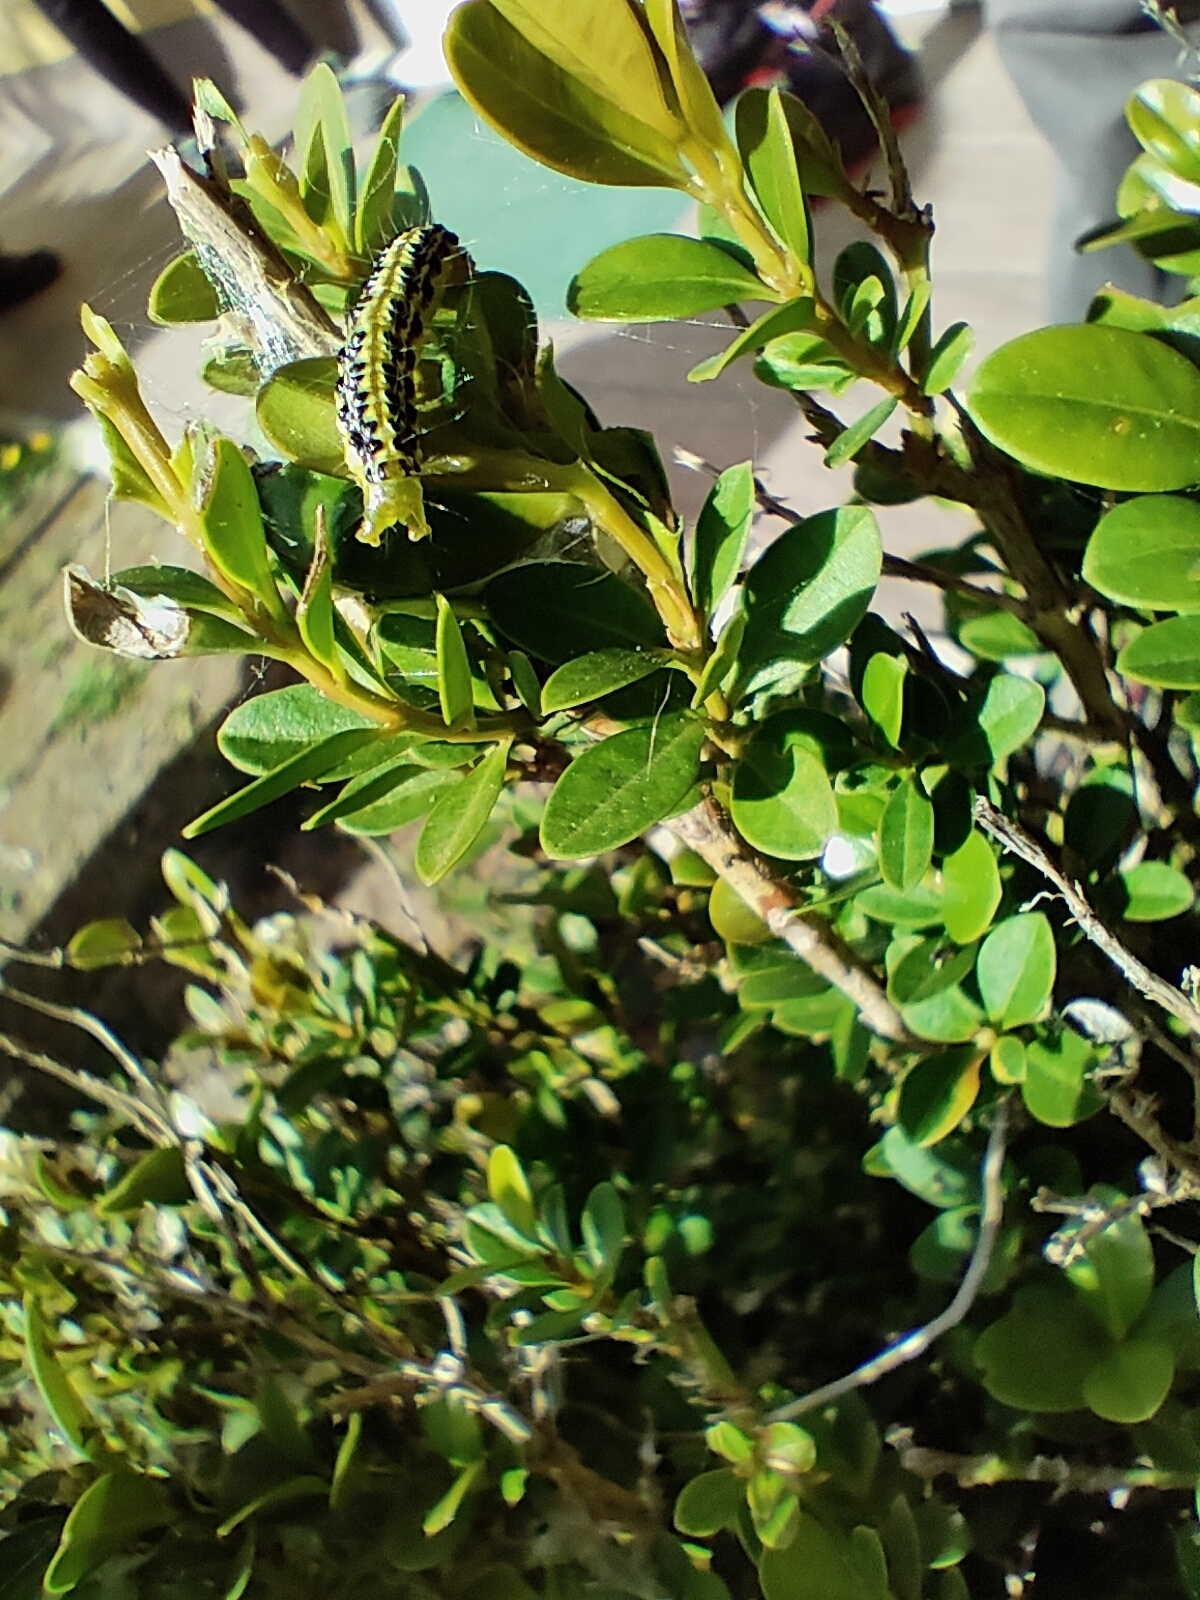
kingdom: Animalia
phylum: Arthropoda
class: Insecta
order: Lepidoptera
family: Crambidae
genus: Cydalima
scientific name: Cydalima perspectalis
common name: Box tree moth
